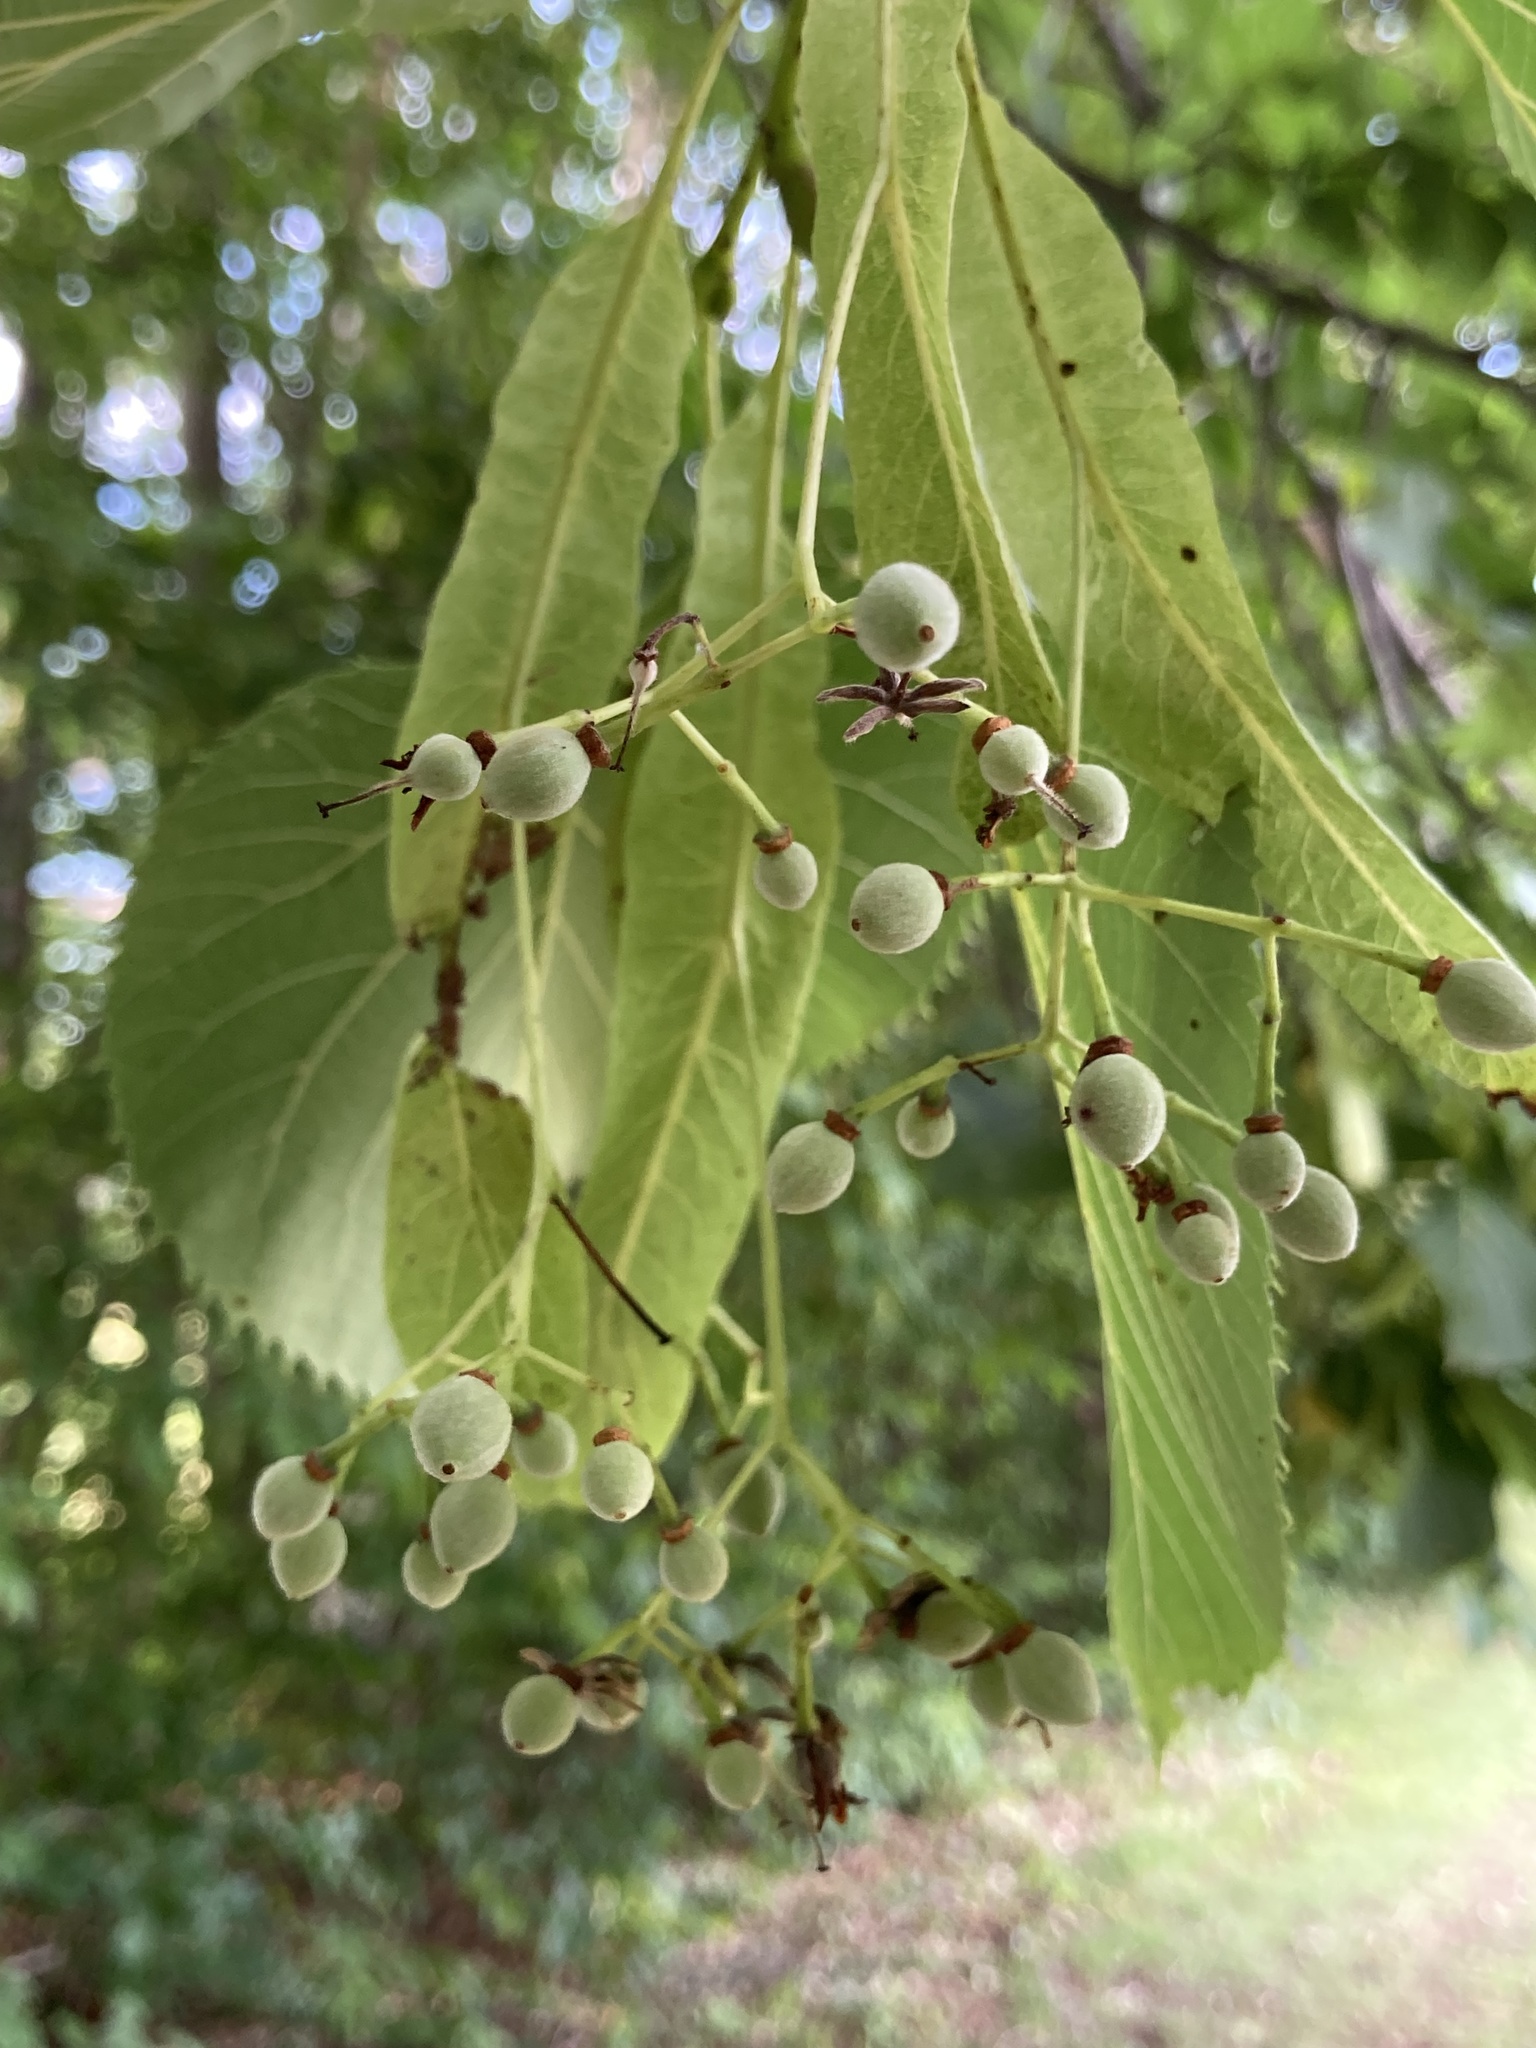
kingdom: Plantae
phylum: Tracheophyta
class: Magnoliopsida
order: Malvales
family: Malvaceae
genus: Tilia
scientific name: Tilia americana
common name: Basswood
